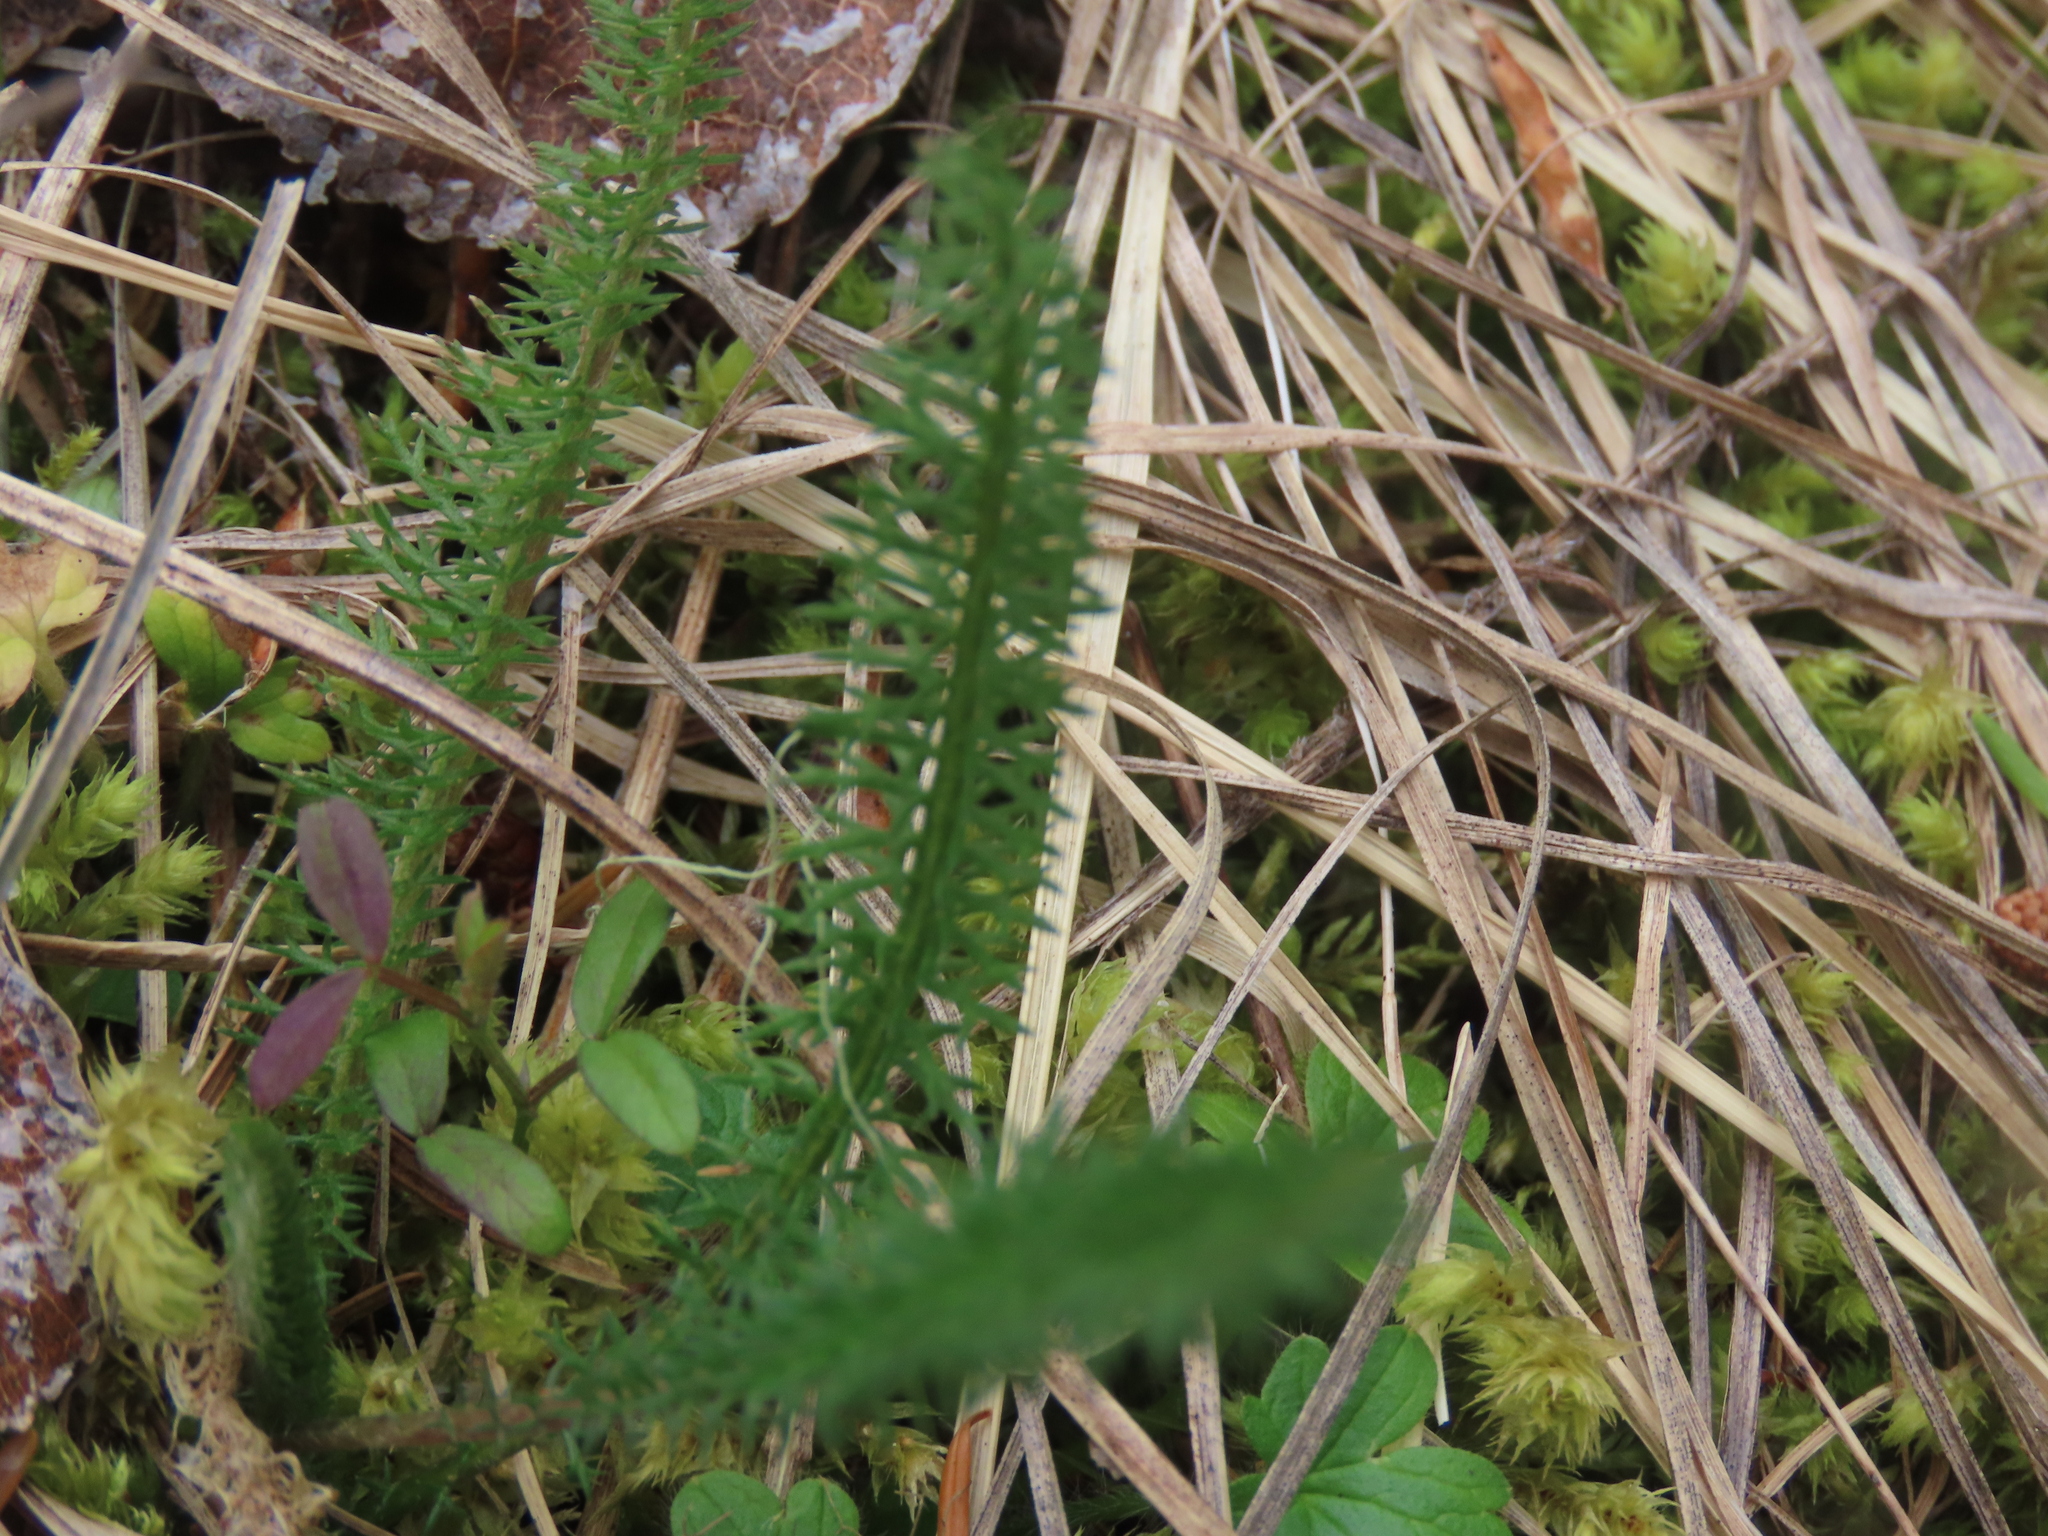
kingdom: Plantae
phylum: Tracheophyta
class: Magnoliopsida
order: Asterales
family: Asteraceae
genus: Achillea
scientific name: Achillea millefolium
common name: Yarrow
